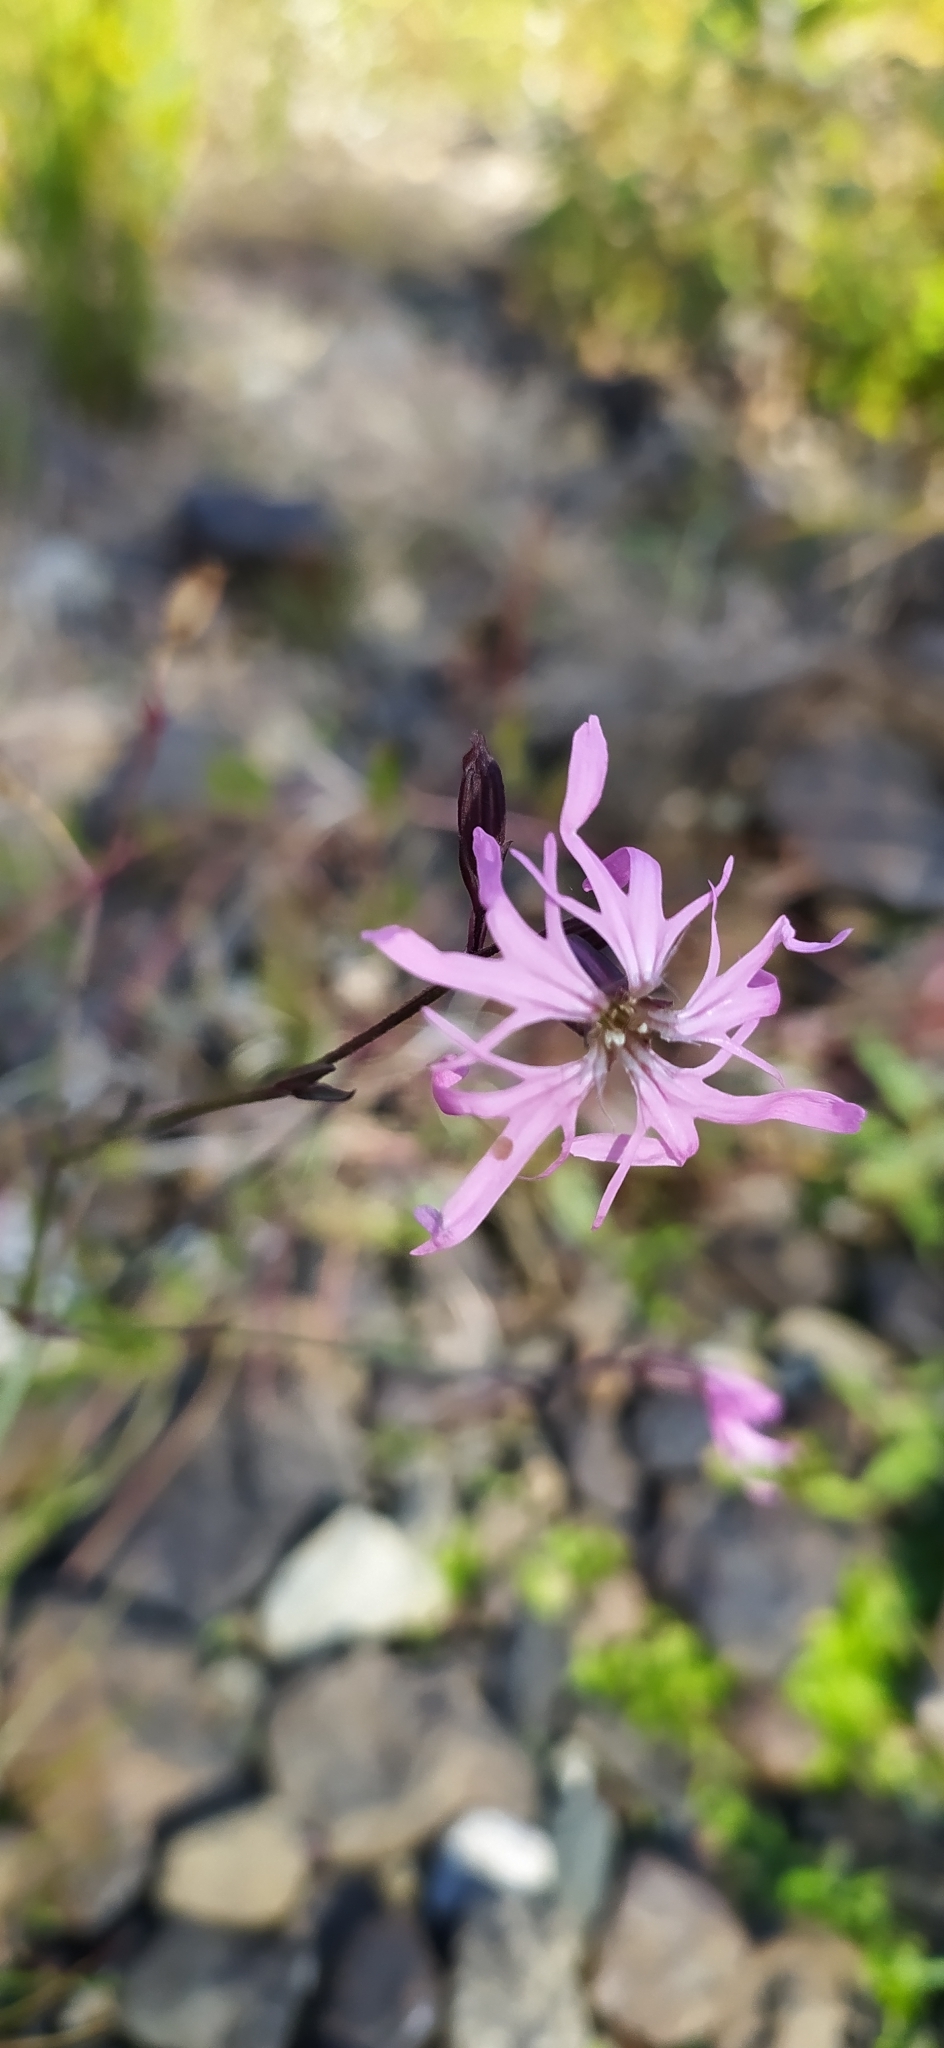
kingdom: Plantae
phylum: Tracheophyta
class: Magnoliopsida
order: Caryophyllales
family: Caryophyllaceae
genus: Silene
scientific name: Silene flos-cuculi
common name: Ragged-robin
